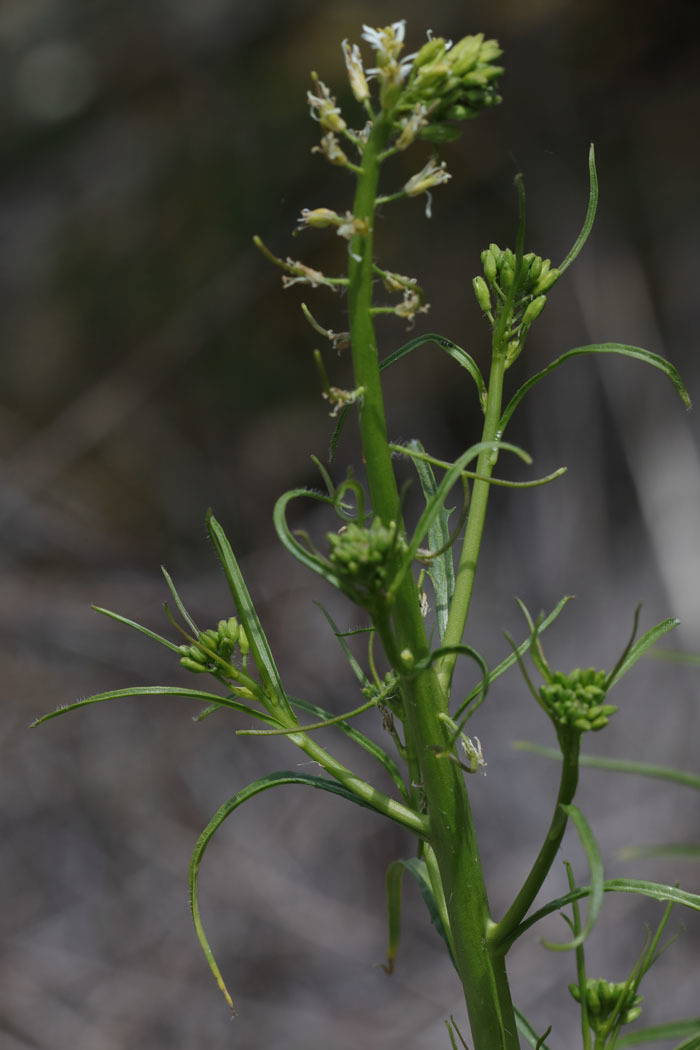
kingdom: Plantae
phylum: Tracheophyta
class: Magnoliopsida
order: Brassicales
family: Brassicaceae
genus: Streptanthus
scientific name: Streptanthus lasiophyllus
